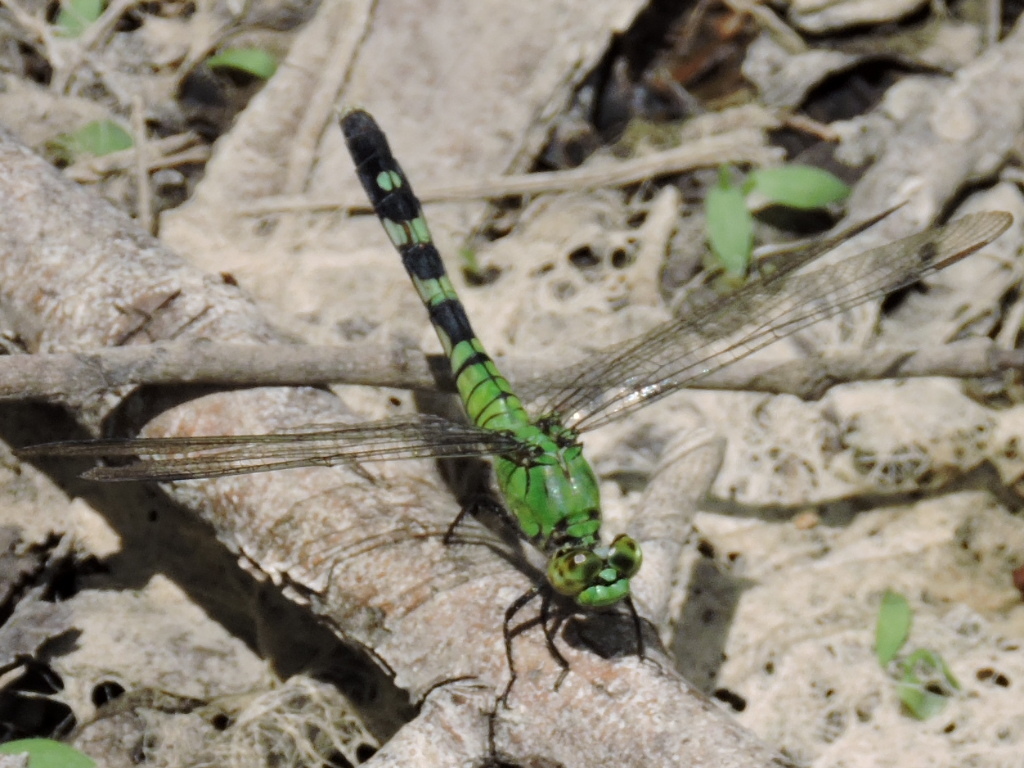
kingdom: Animalia
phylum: Arthropoda
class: Insecta
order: Odonata
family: Libellulidae
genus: Erythemis
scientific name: Erythemis simplicicollis
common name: Eastern pondhawk
